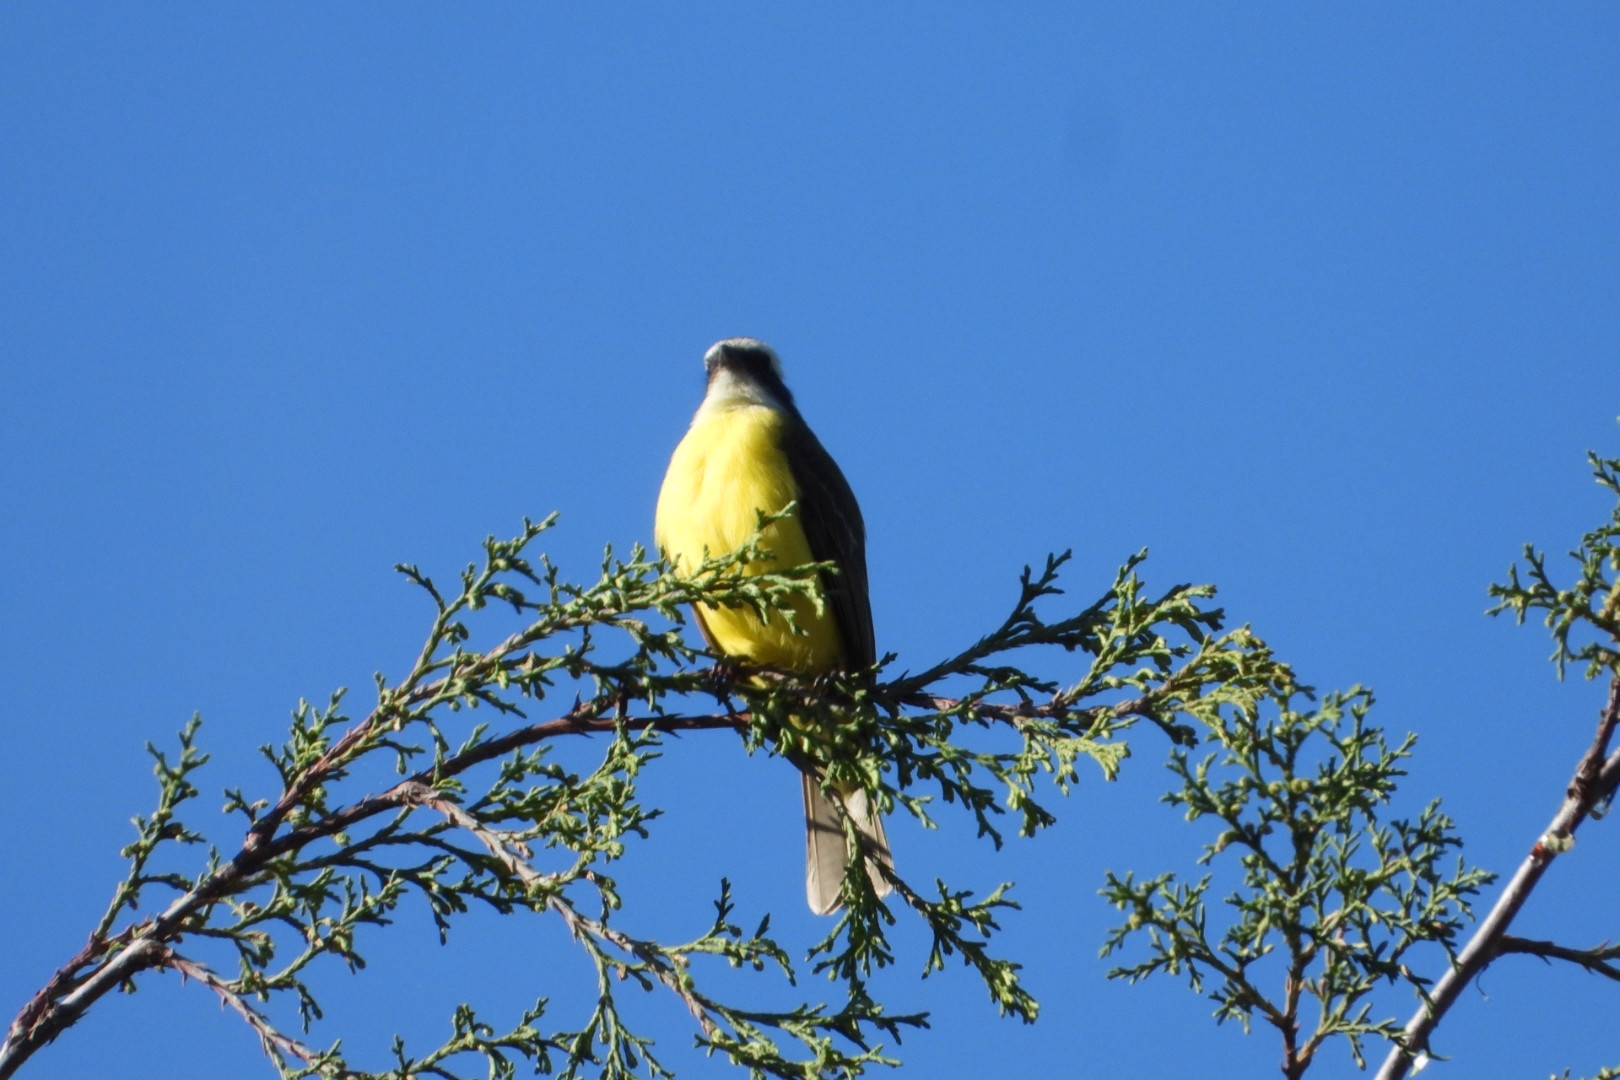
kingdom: Animalia
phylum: Chordata
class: Aves
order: Passeriformes
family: Tyrannidae
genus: Myiozetetes
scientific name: Myiozetetes similis
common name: Social flycatcher
